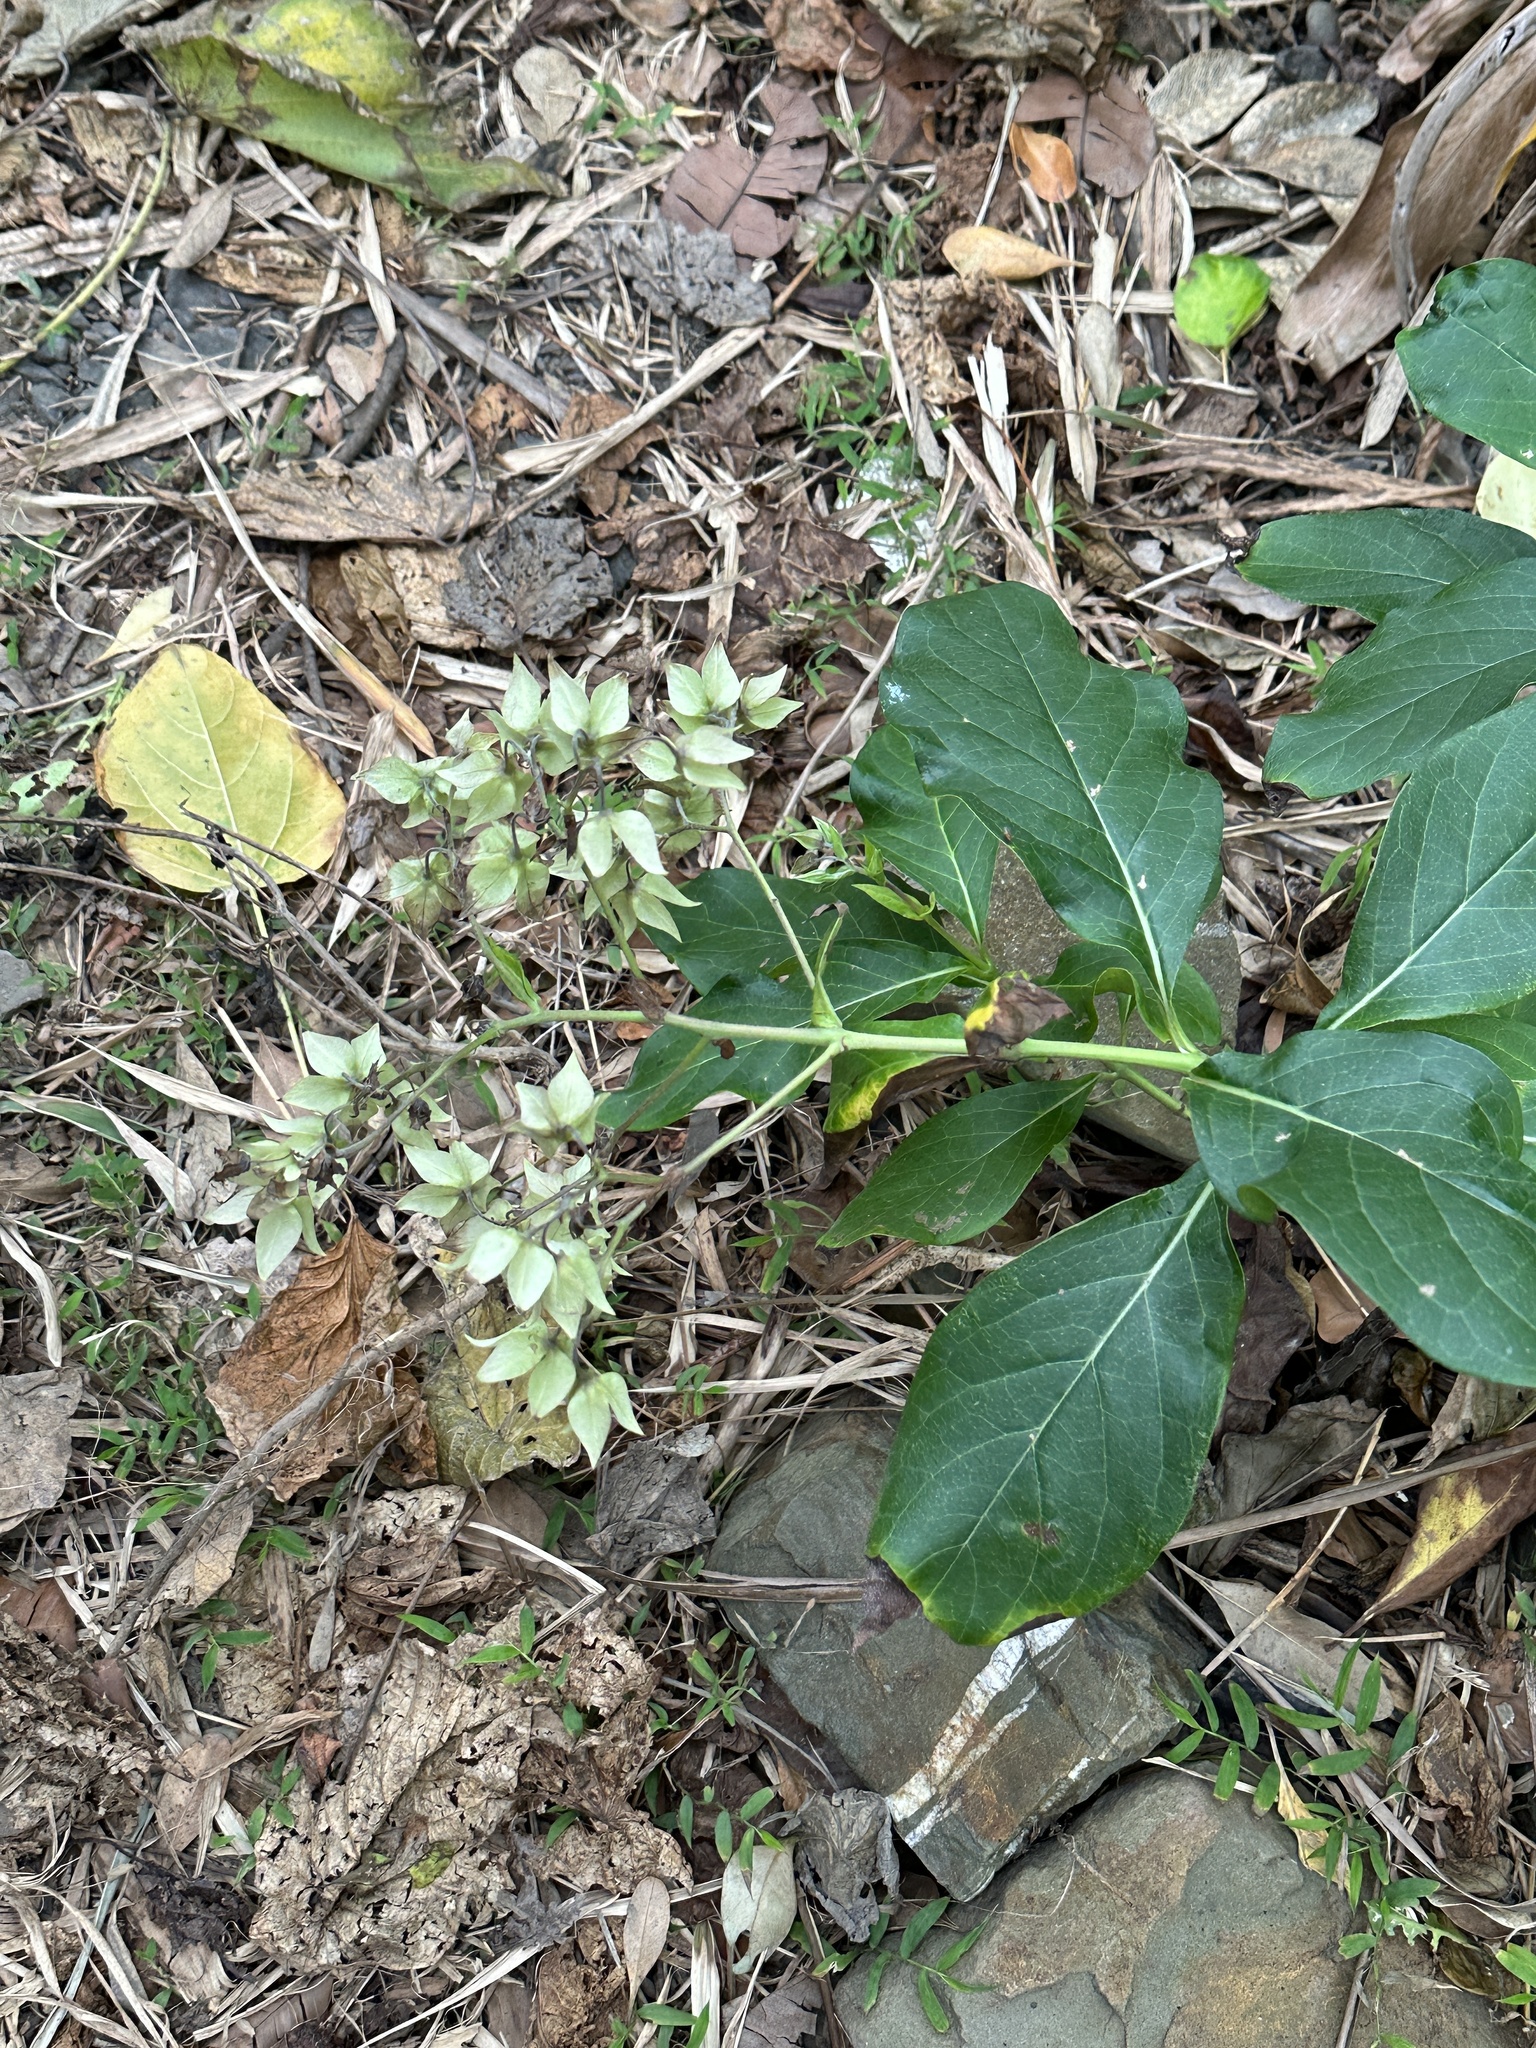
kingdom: Plantae
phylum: Tracheophyta
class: Magnoliopsida
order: Boraginales
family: Boraginaceae
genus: Trichodesma
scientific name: Trichodesma calycosum
